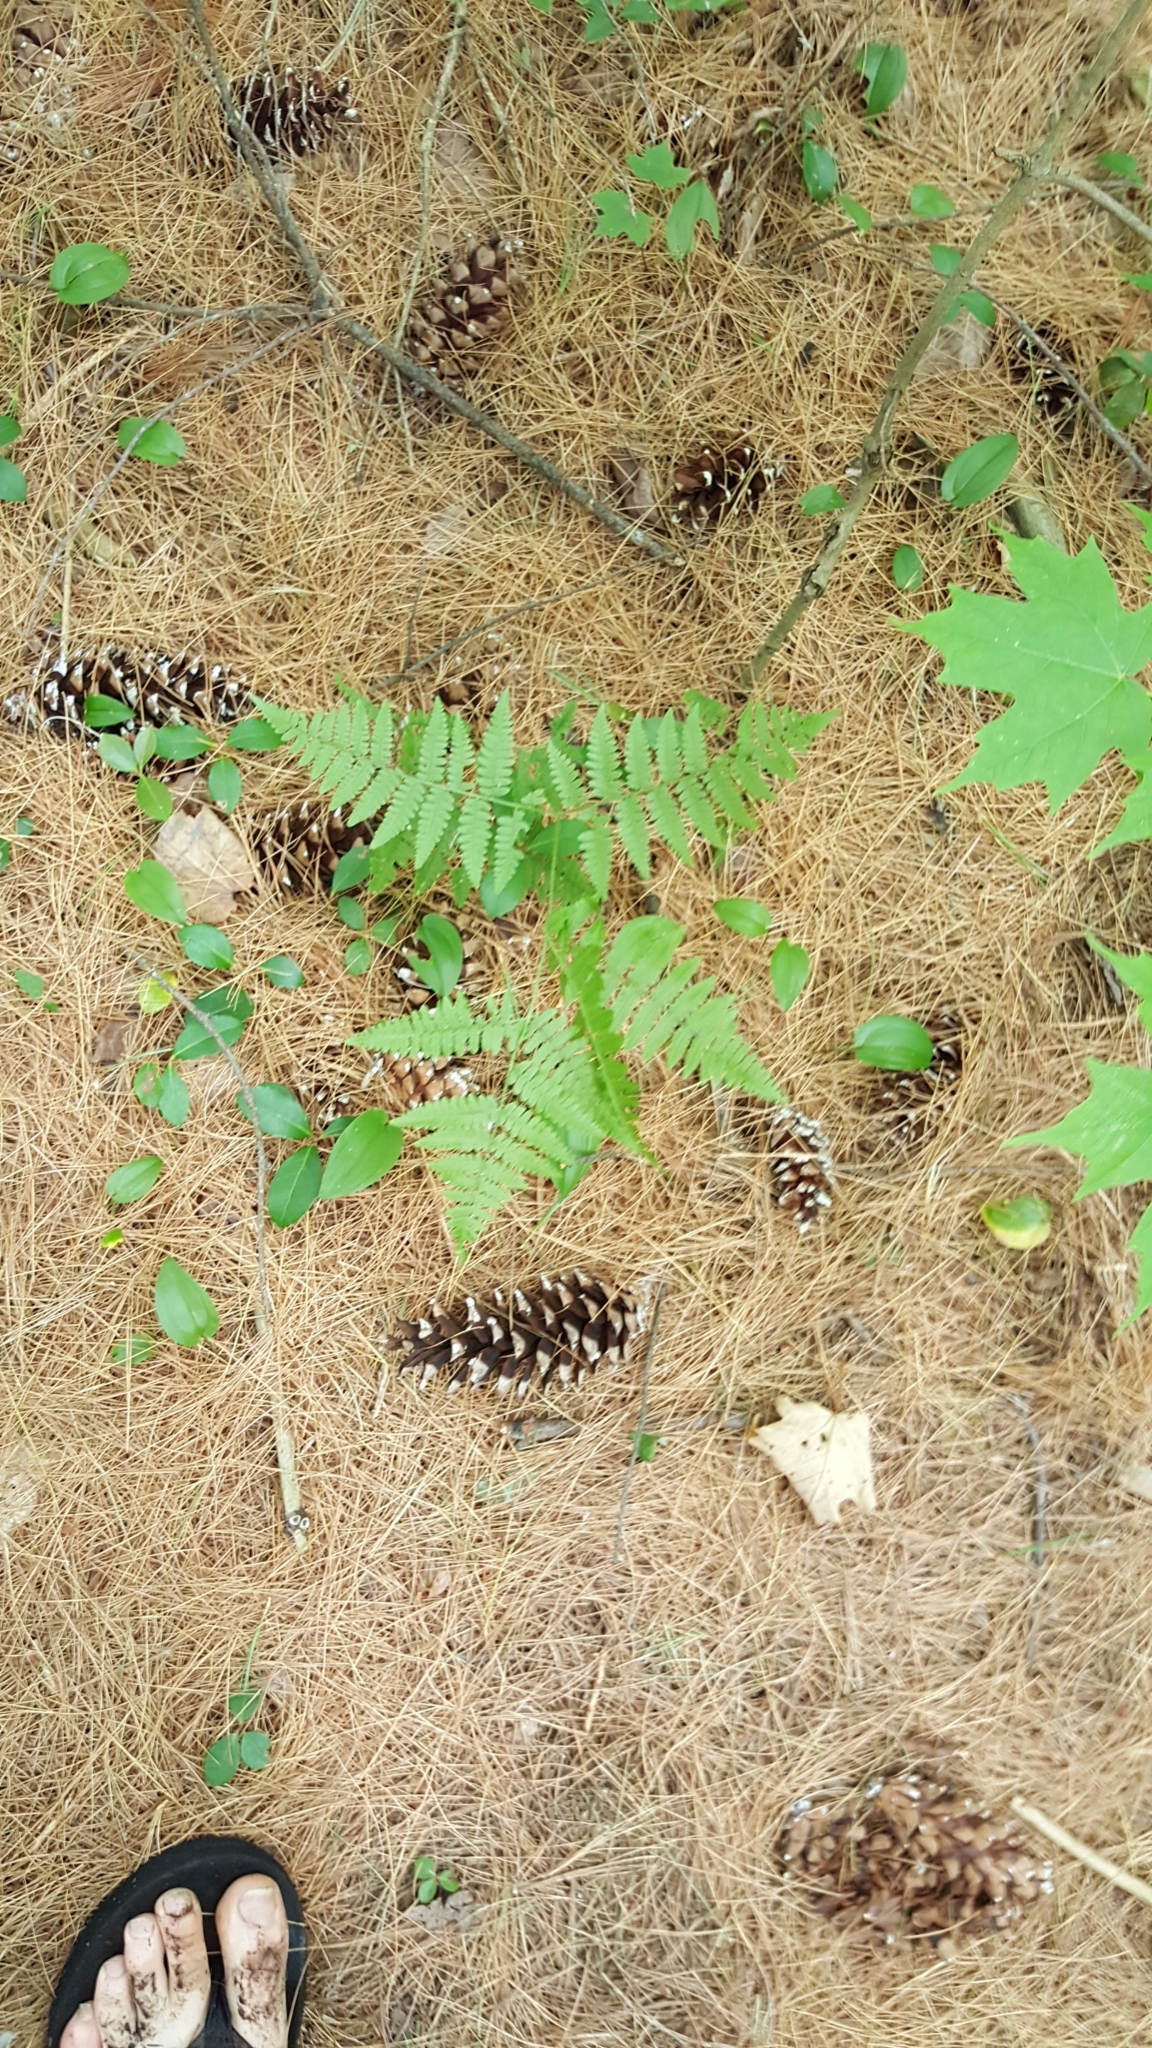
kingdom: Plantae
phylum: Tracheophyta
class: Polypodiopsida
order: Polypodiales
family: Dennstaedtiaceae
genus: Pteridium
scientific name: Pteridium aquilinum
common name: Bracken
